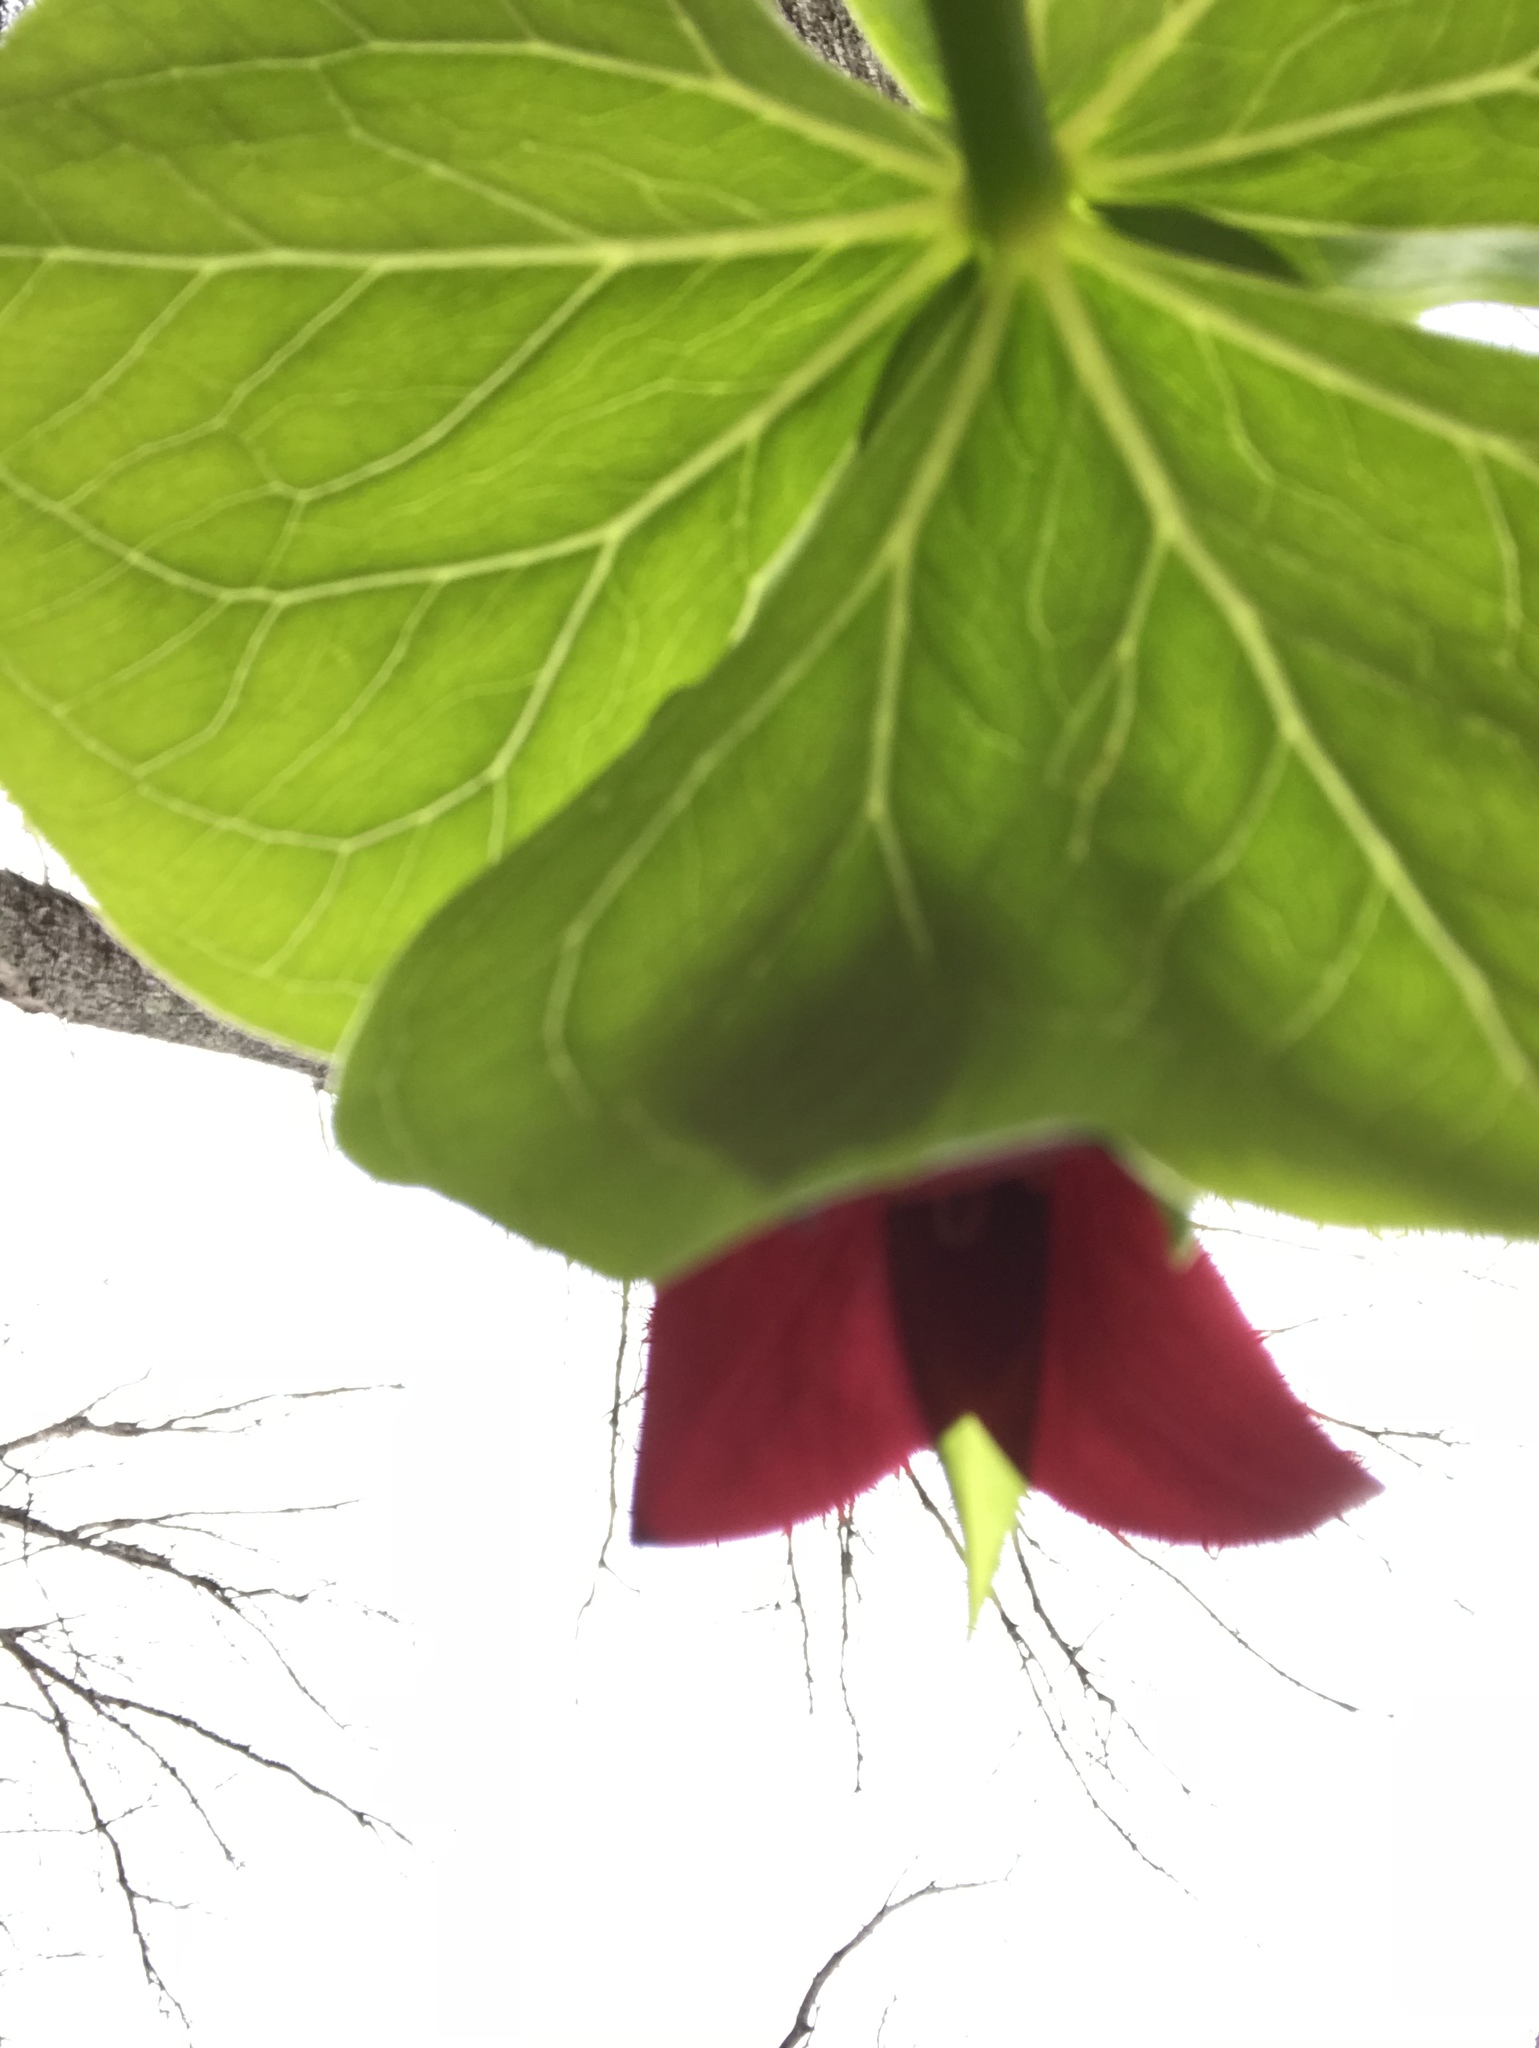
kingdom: Plantae
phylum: Tracheophyta
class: Liliopsida
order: Liliales
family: Melanthiaceae
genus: Trillium
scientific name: Trillium erectum
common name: Purple trillium
